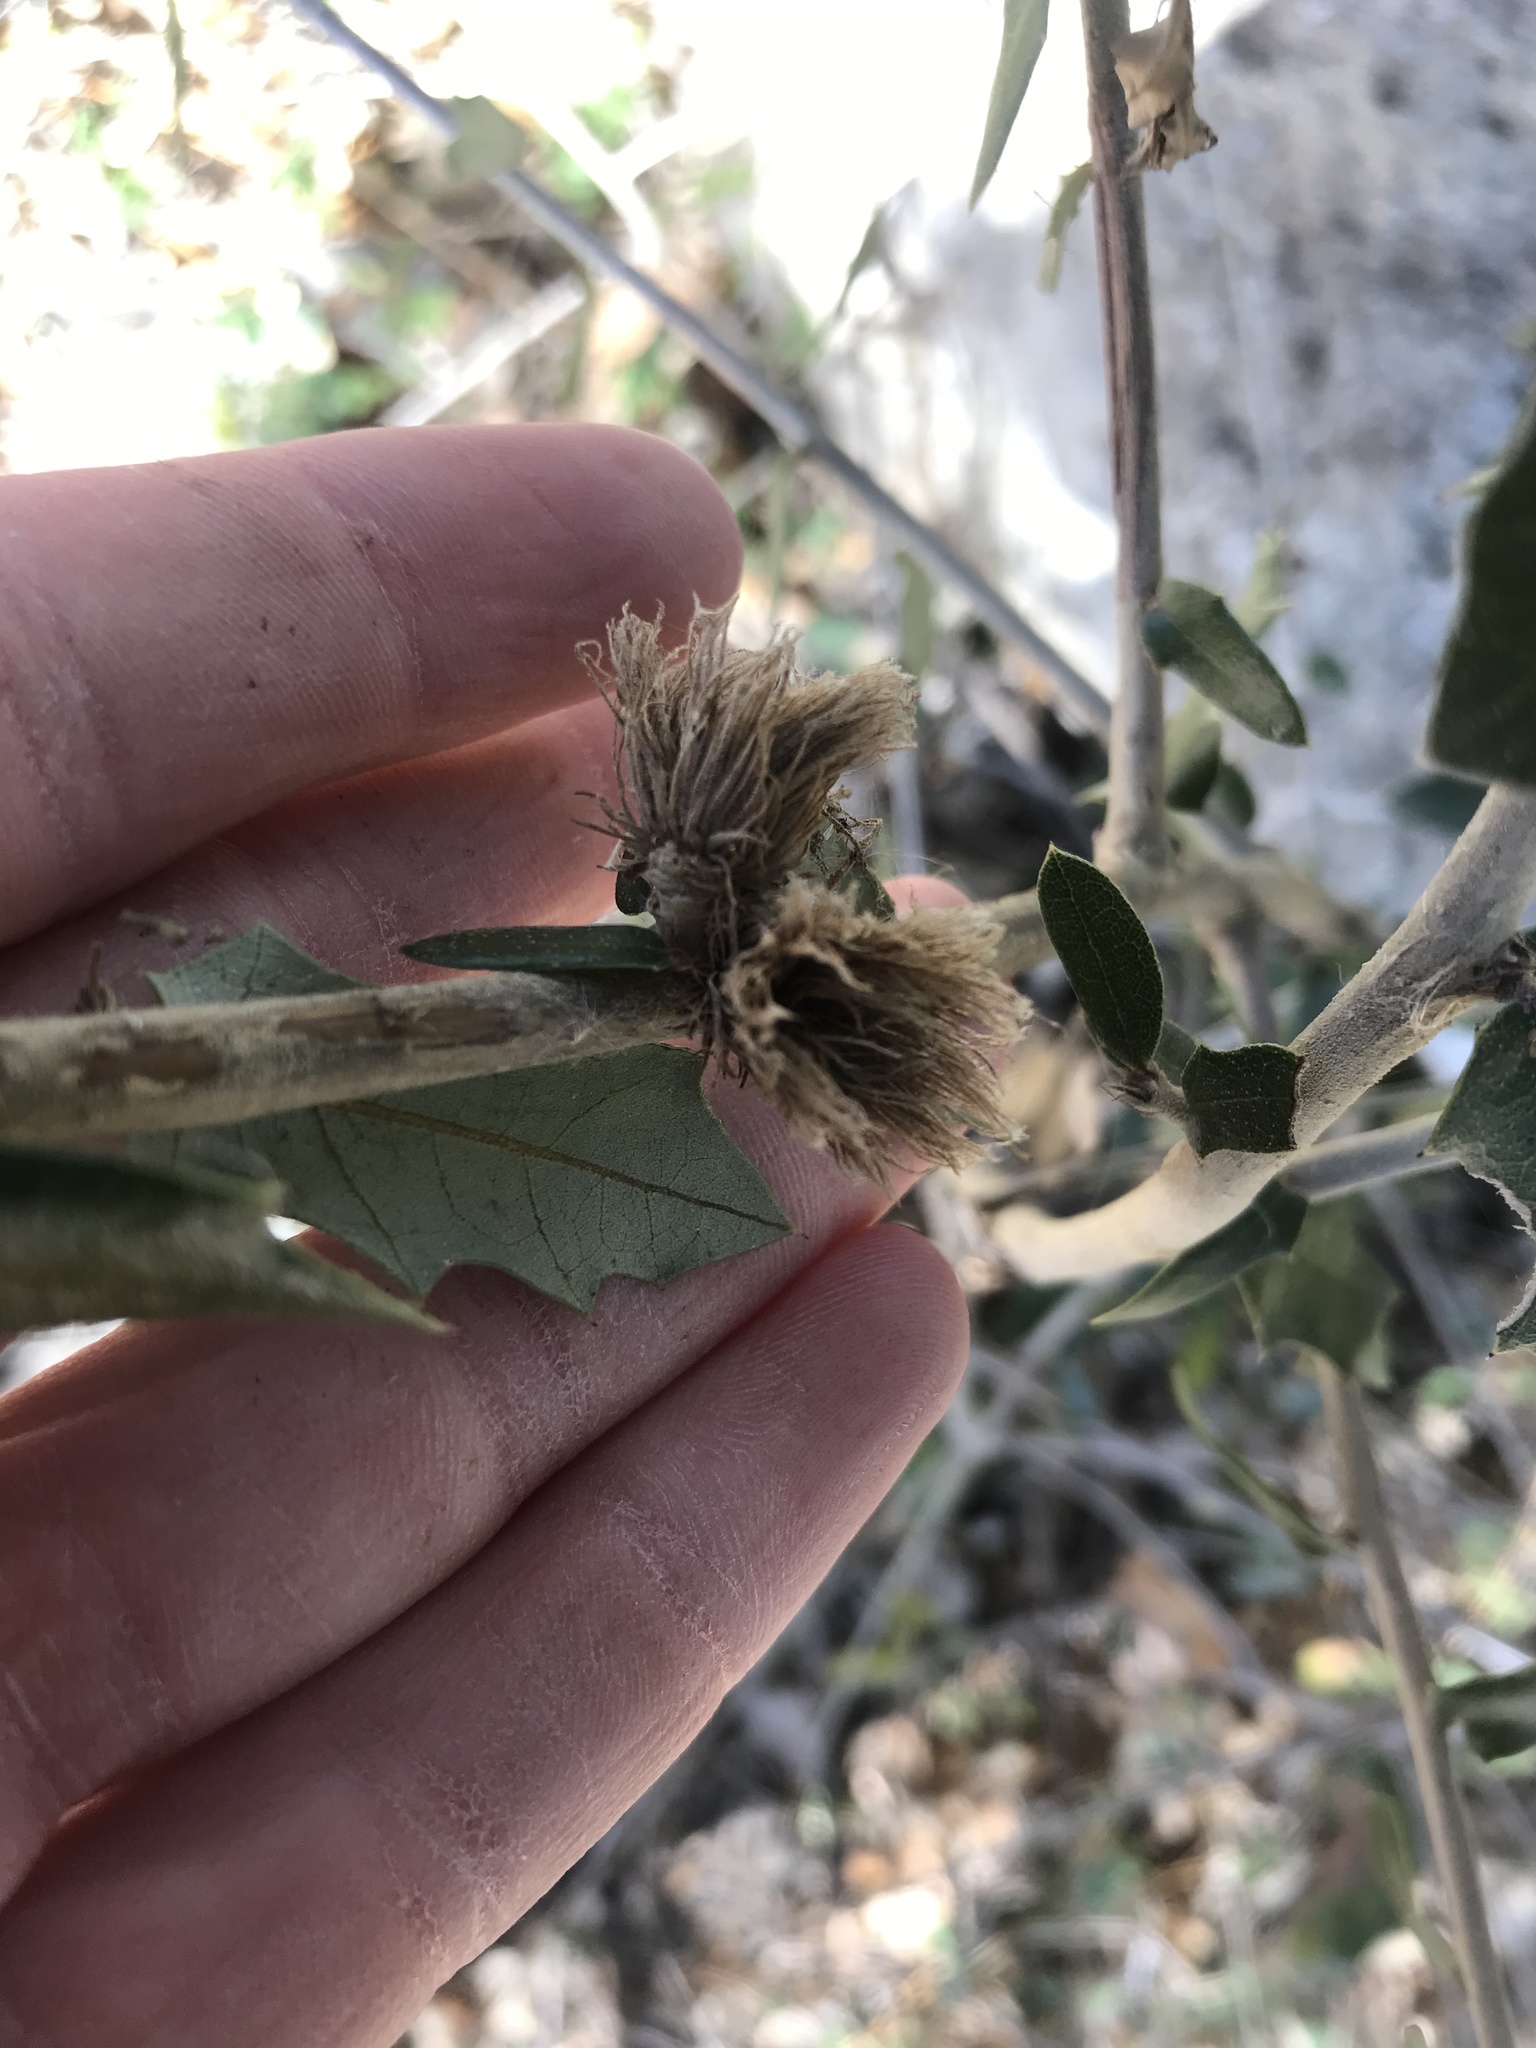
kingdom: Animalia
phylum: Arthropoda
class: Insecta
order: Hymenoptera
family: Cynipidae
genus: Andricus
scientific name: Andricus quercusfoliatus
